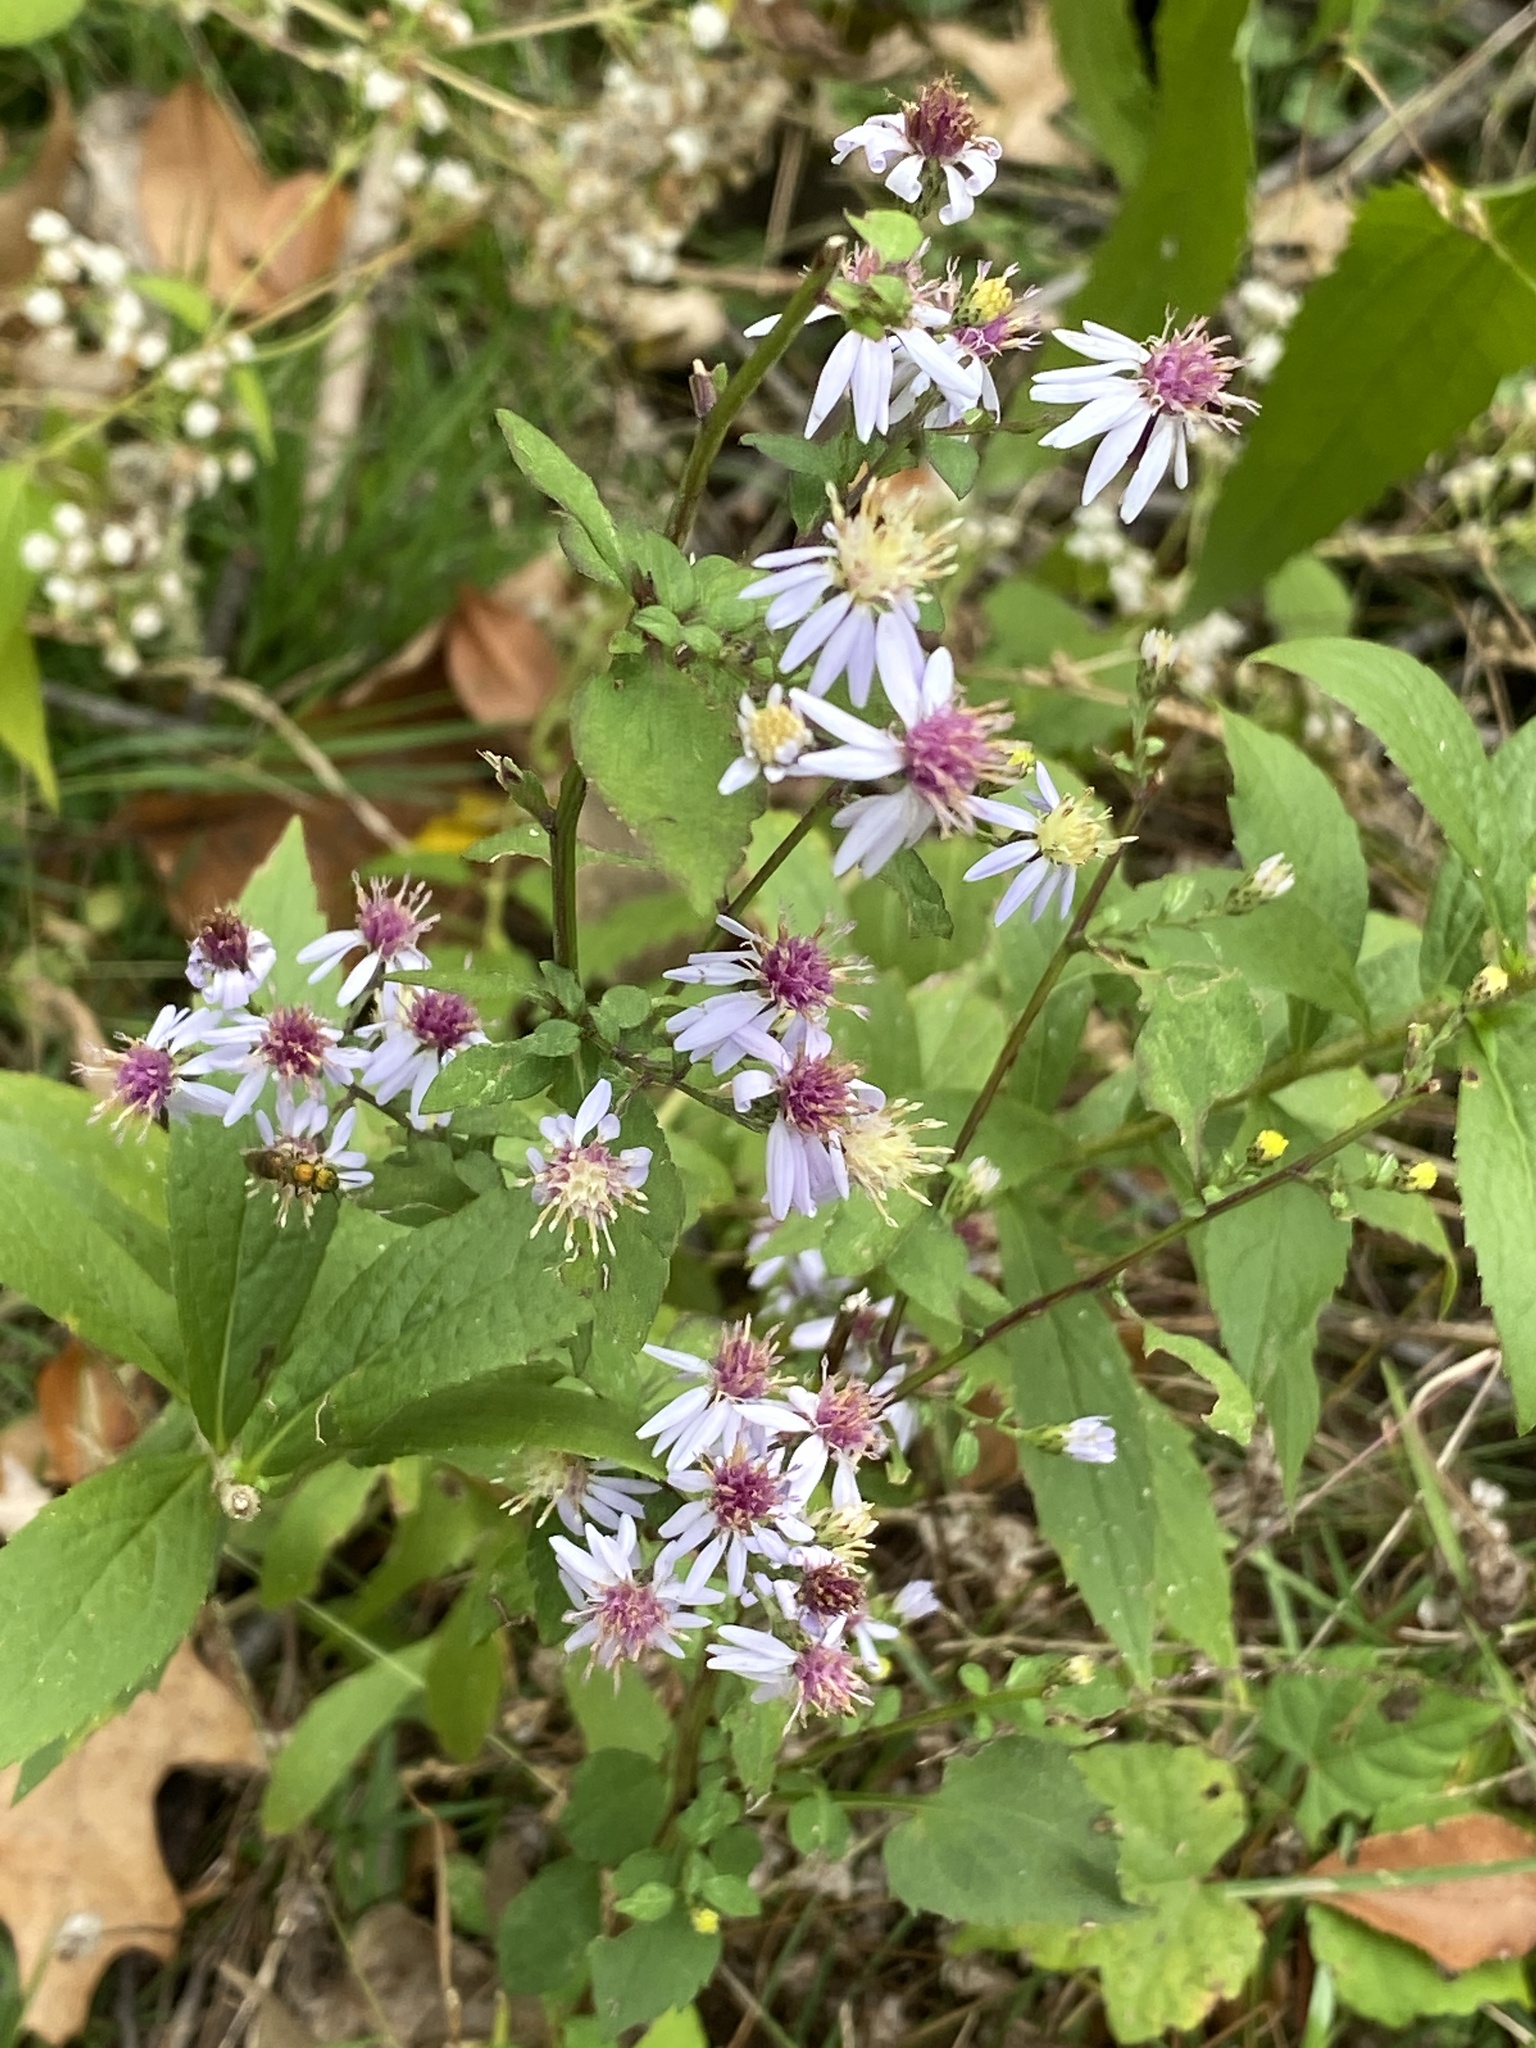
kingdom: Plantae
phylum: Tracheophyta
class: Magnoliopsida
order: Asterales
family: Asteraceae
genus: Symphyotrichum
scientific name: Symphyotrichum cordifolium
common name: Beeweed
